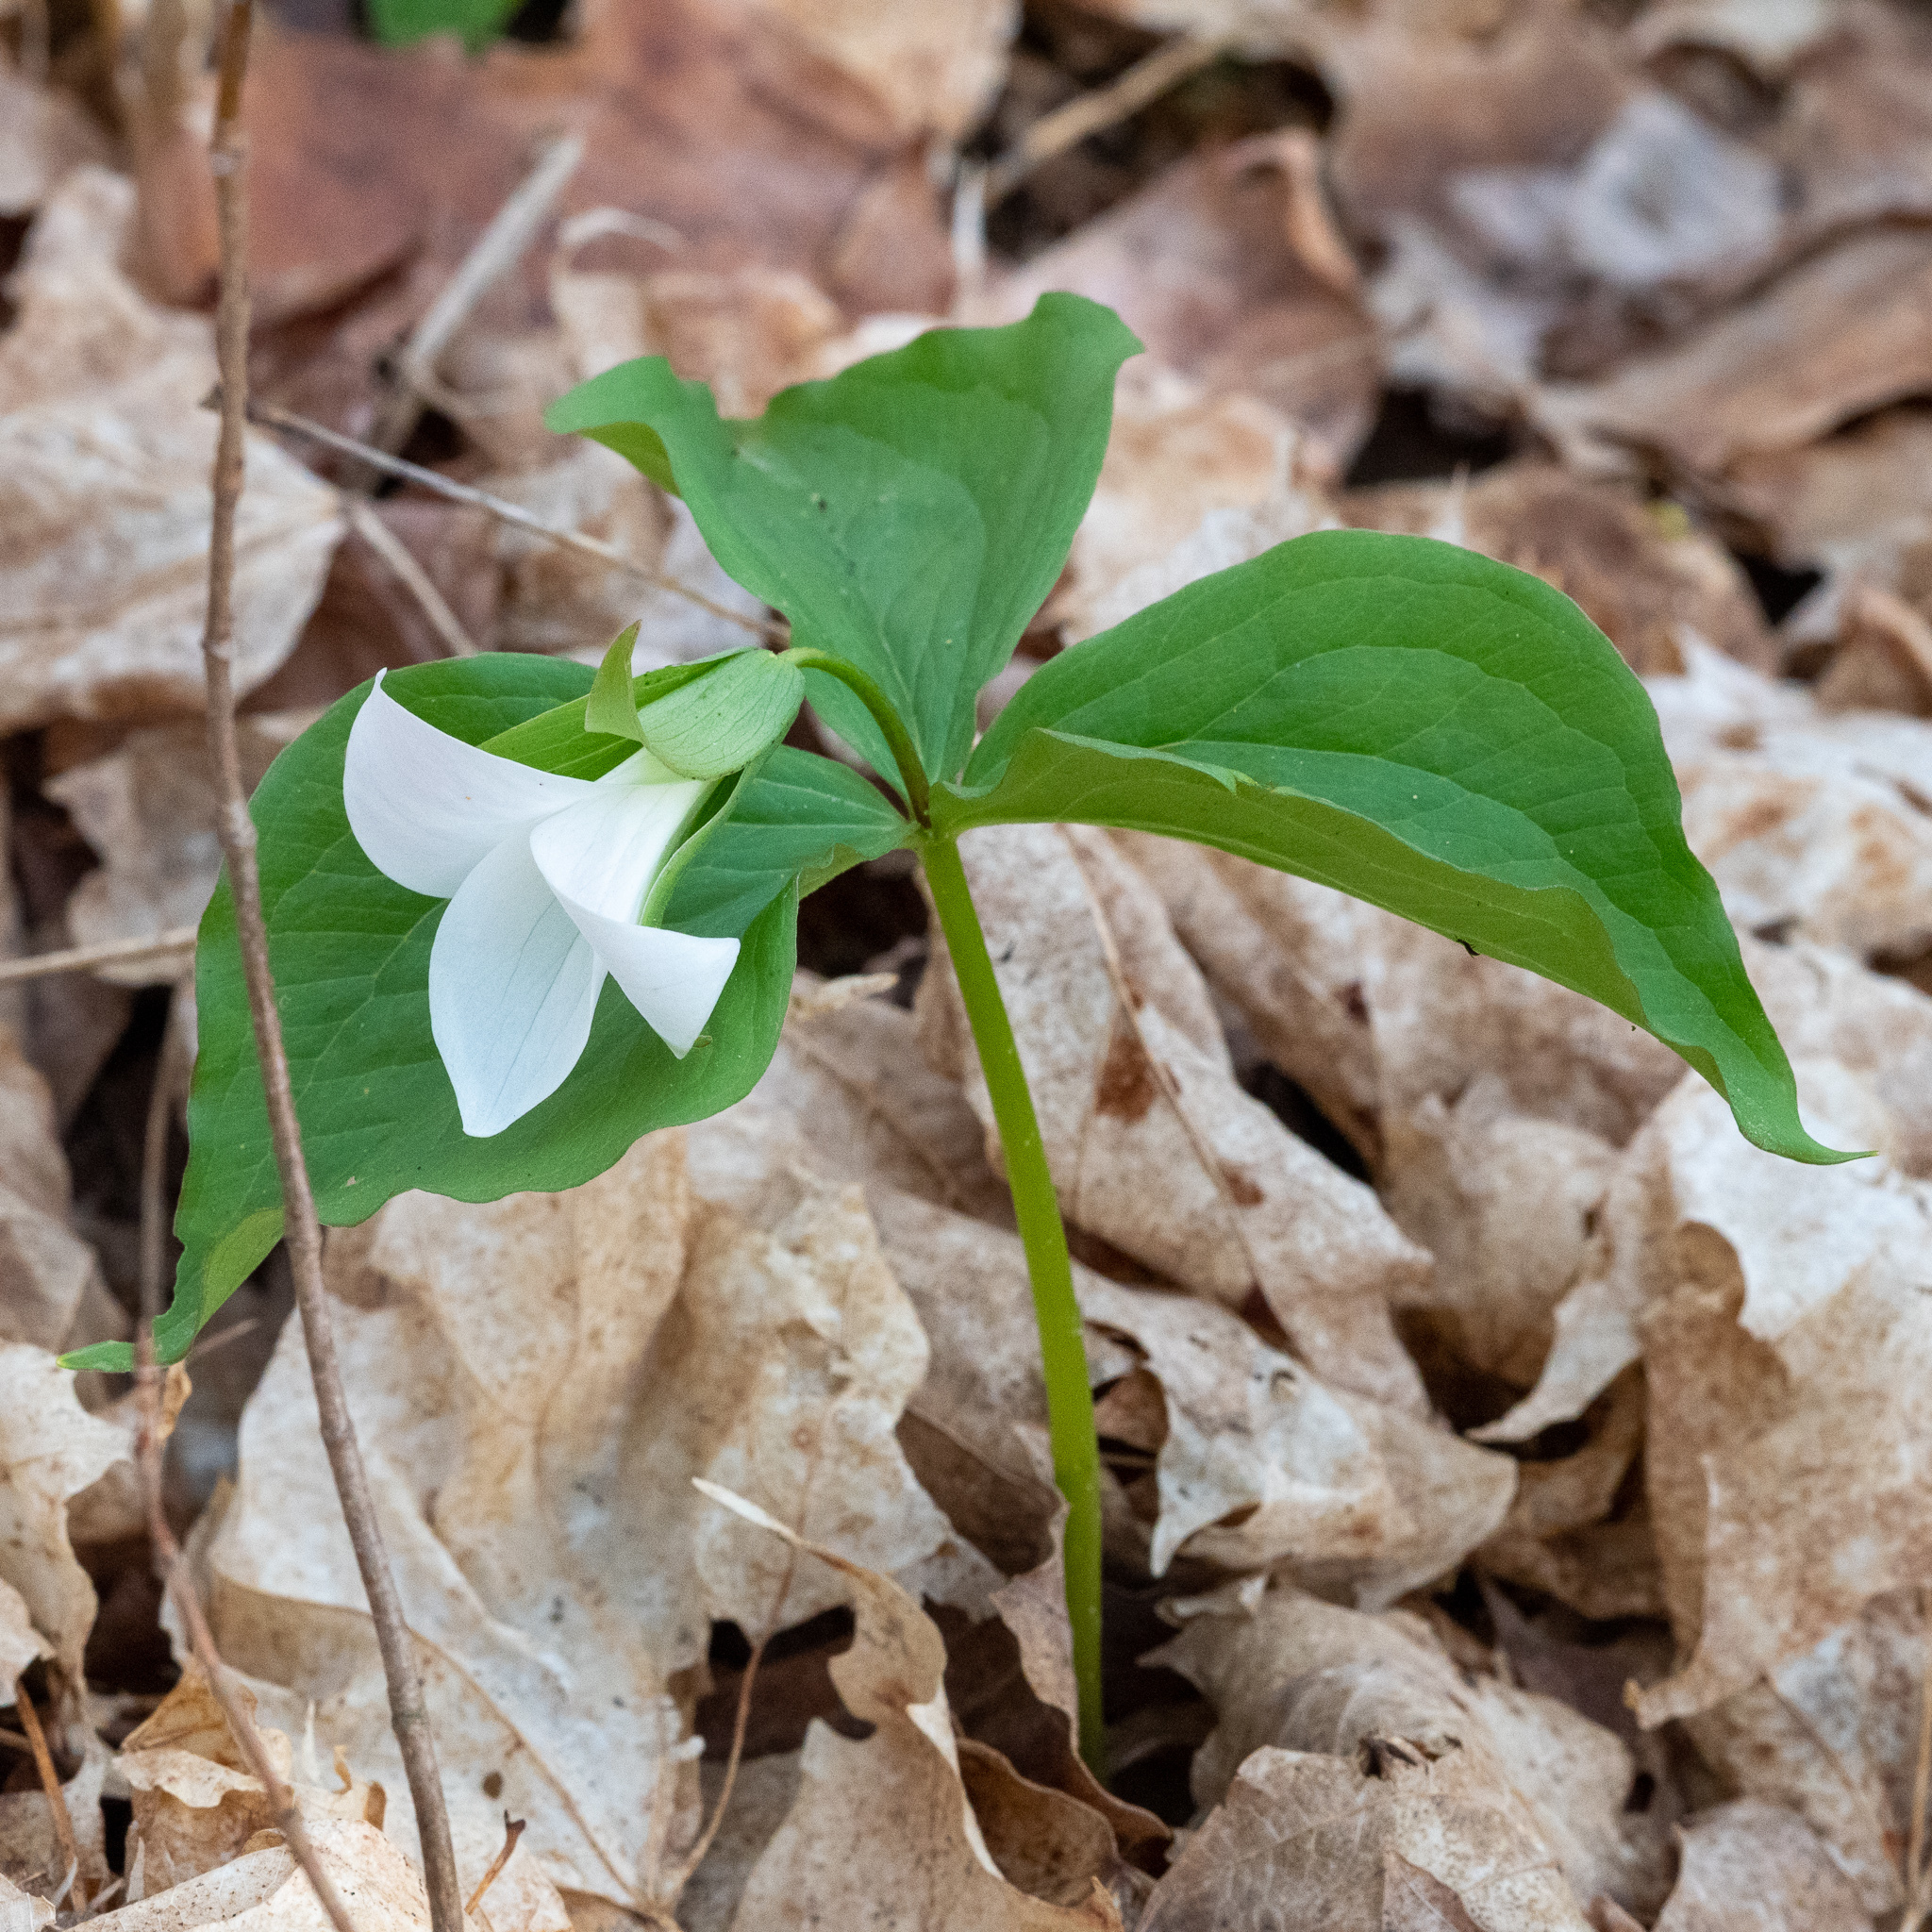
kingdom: Plantae
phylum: Tracheophyta
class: Liliopsida
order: Liliales
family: Melanthiaceae
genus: Trillium
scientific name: Trillium grandiflorum
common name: Great white trillium
